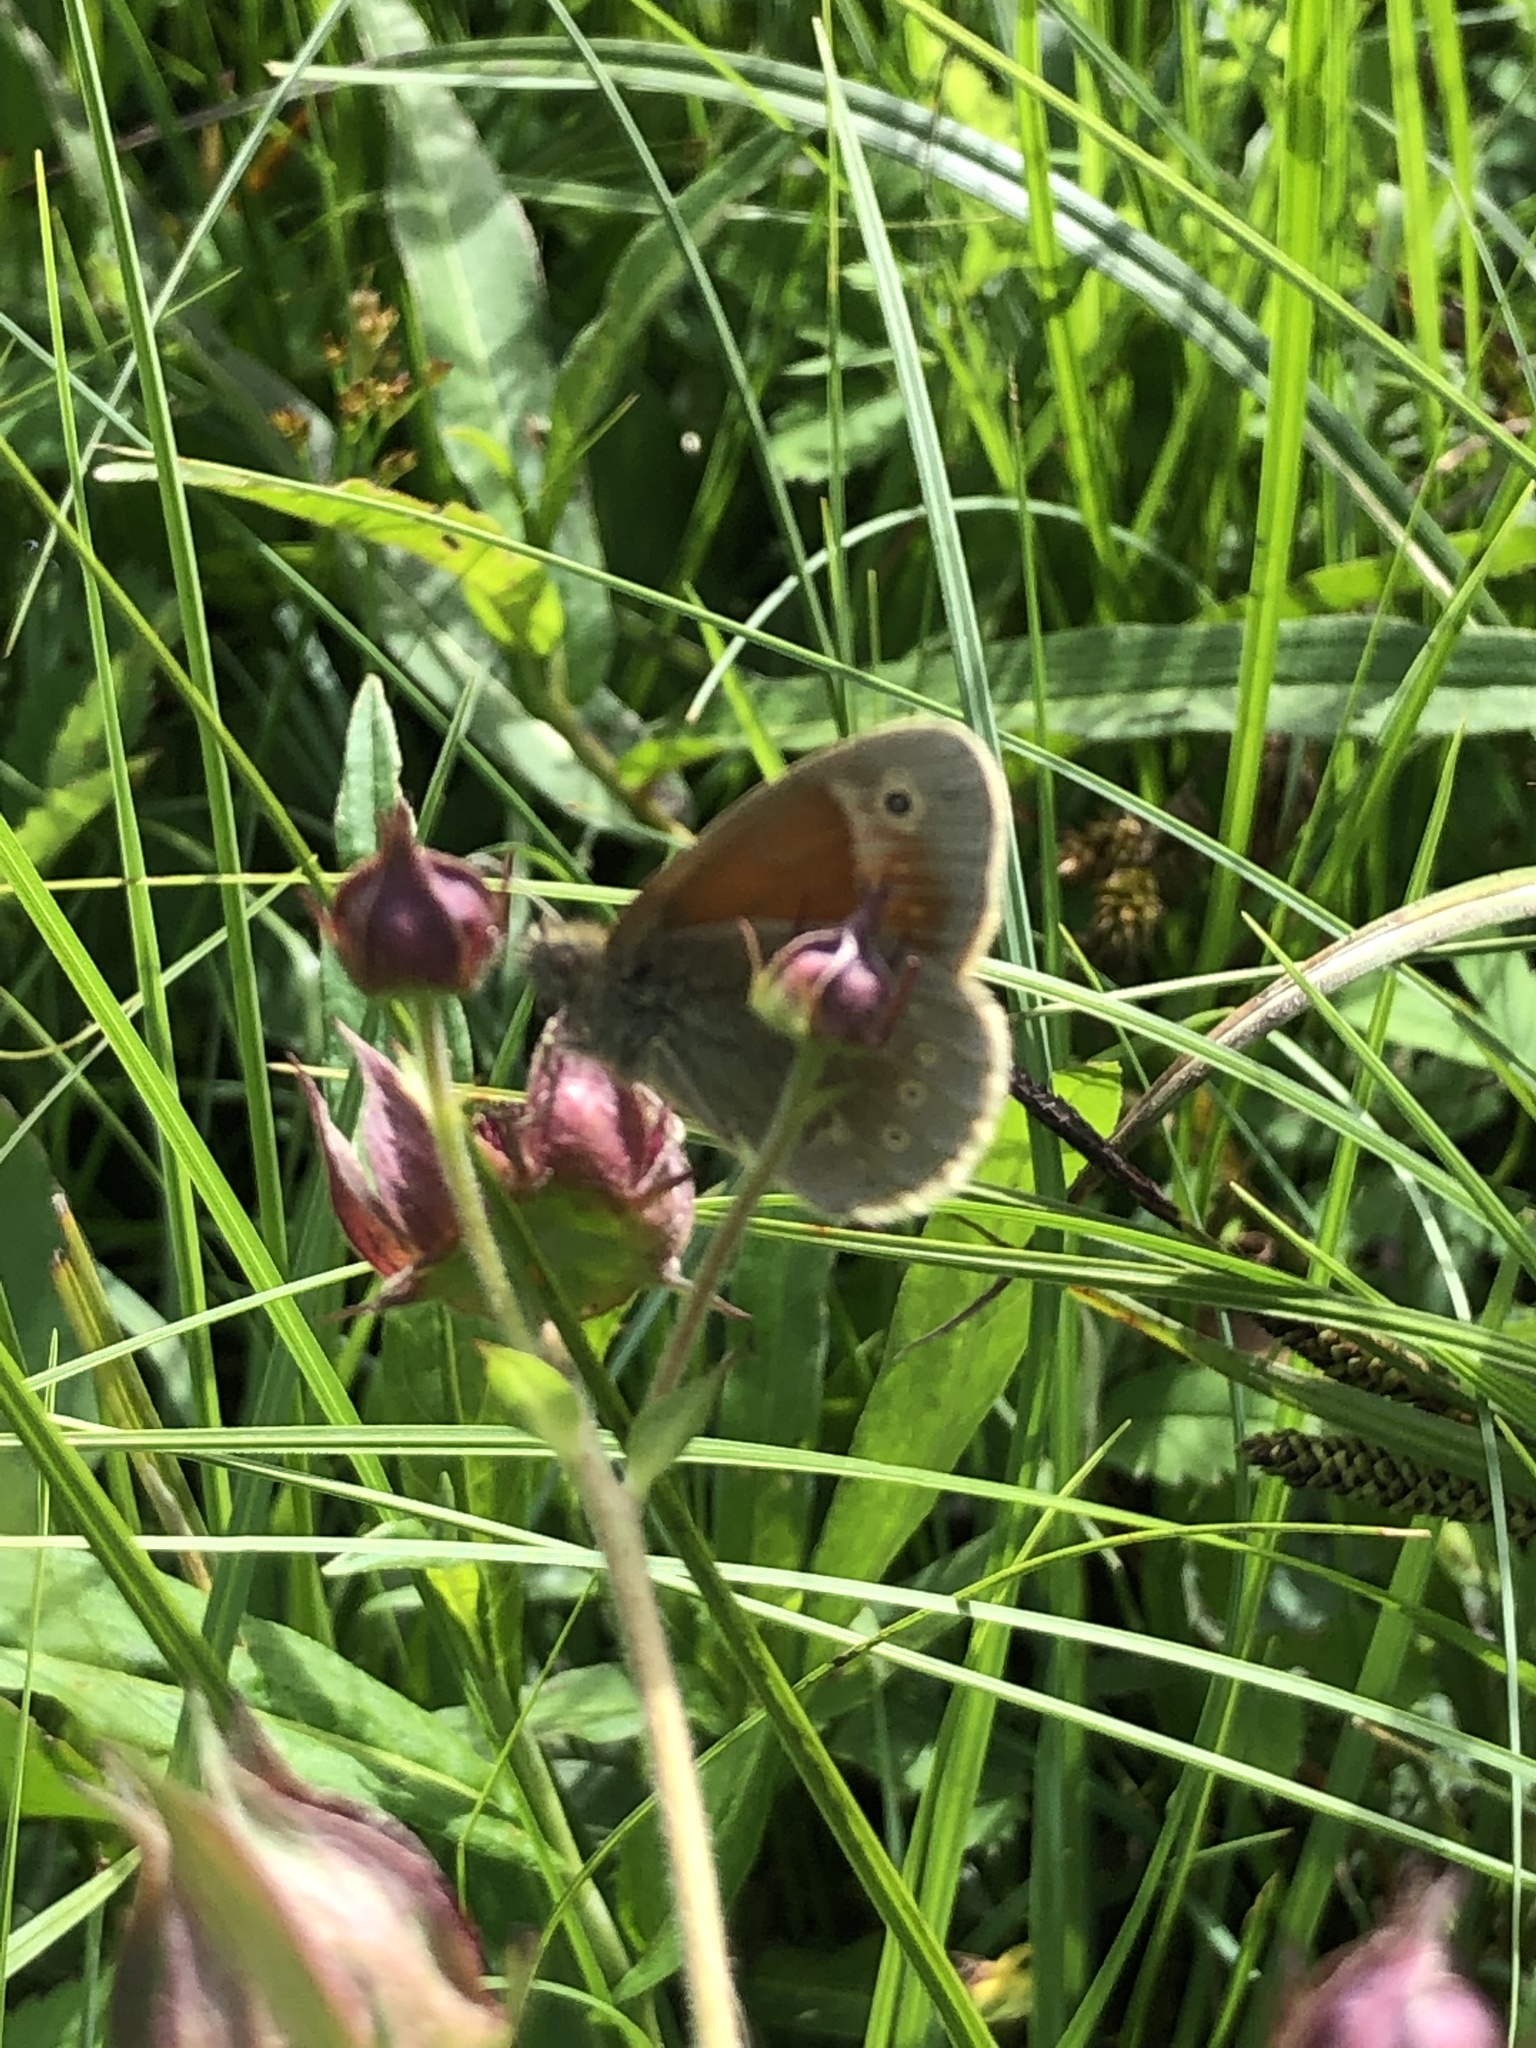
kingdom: Animalia
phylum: Arthropoda
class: Insecta
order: Lepidoptera
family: Nymphalidae
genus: Coenonympha
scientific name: Coenonympha tullia
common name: Large heath
